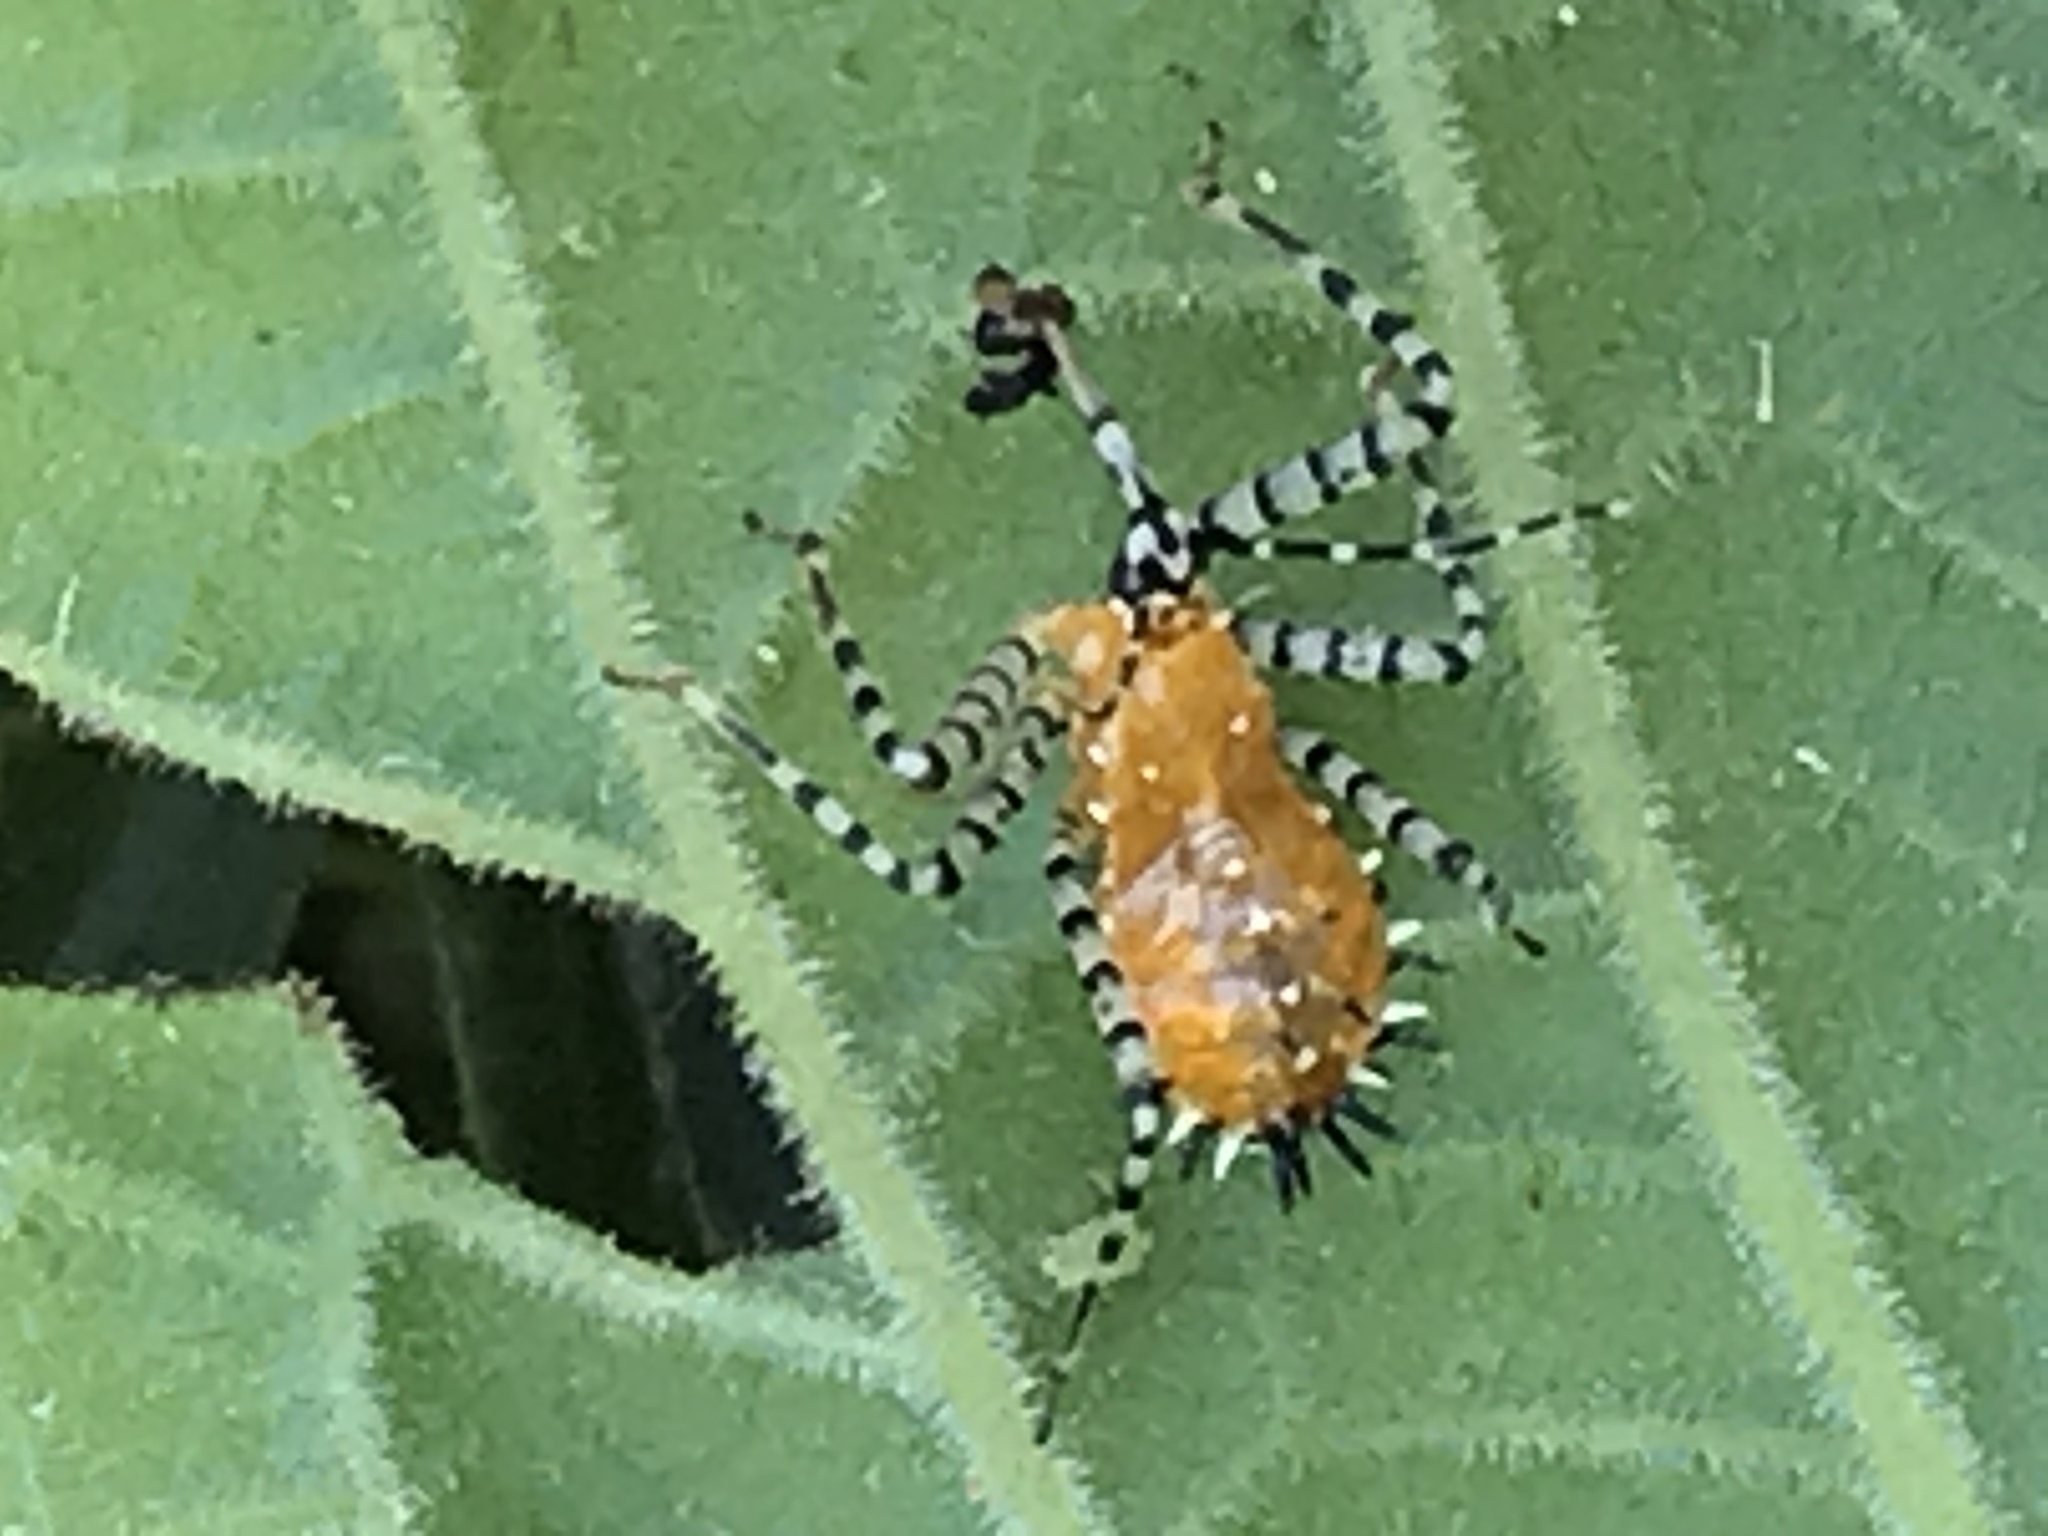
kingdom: Animalia
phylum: Arthropoda
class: Insecta
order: Hemiptera
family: Reduviidae
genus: Pselliopus
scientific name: Pselliopus cinctus
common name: Ringed assassin bug
